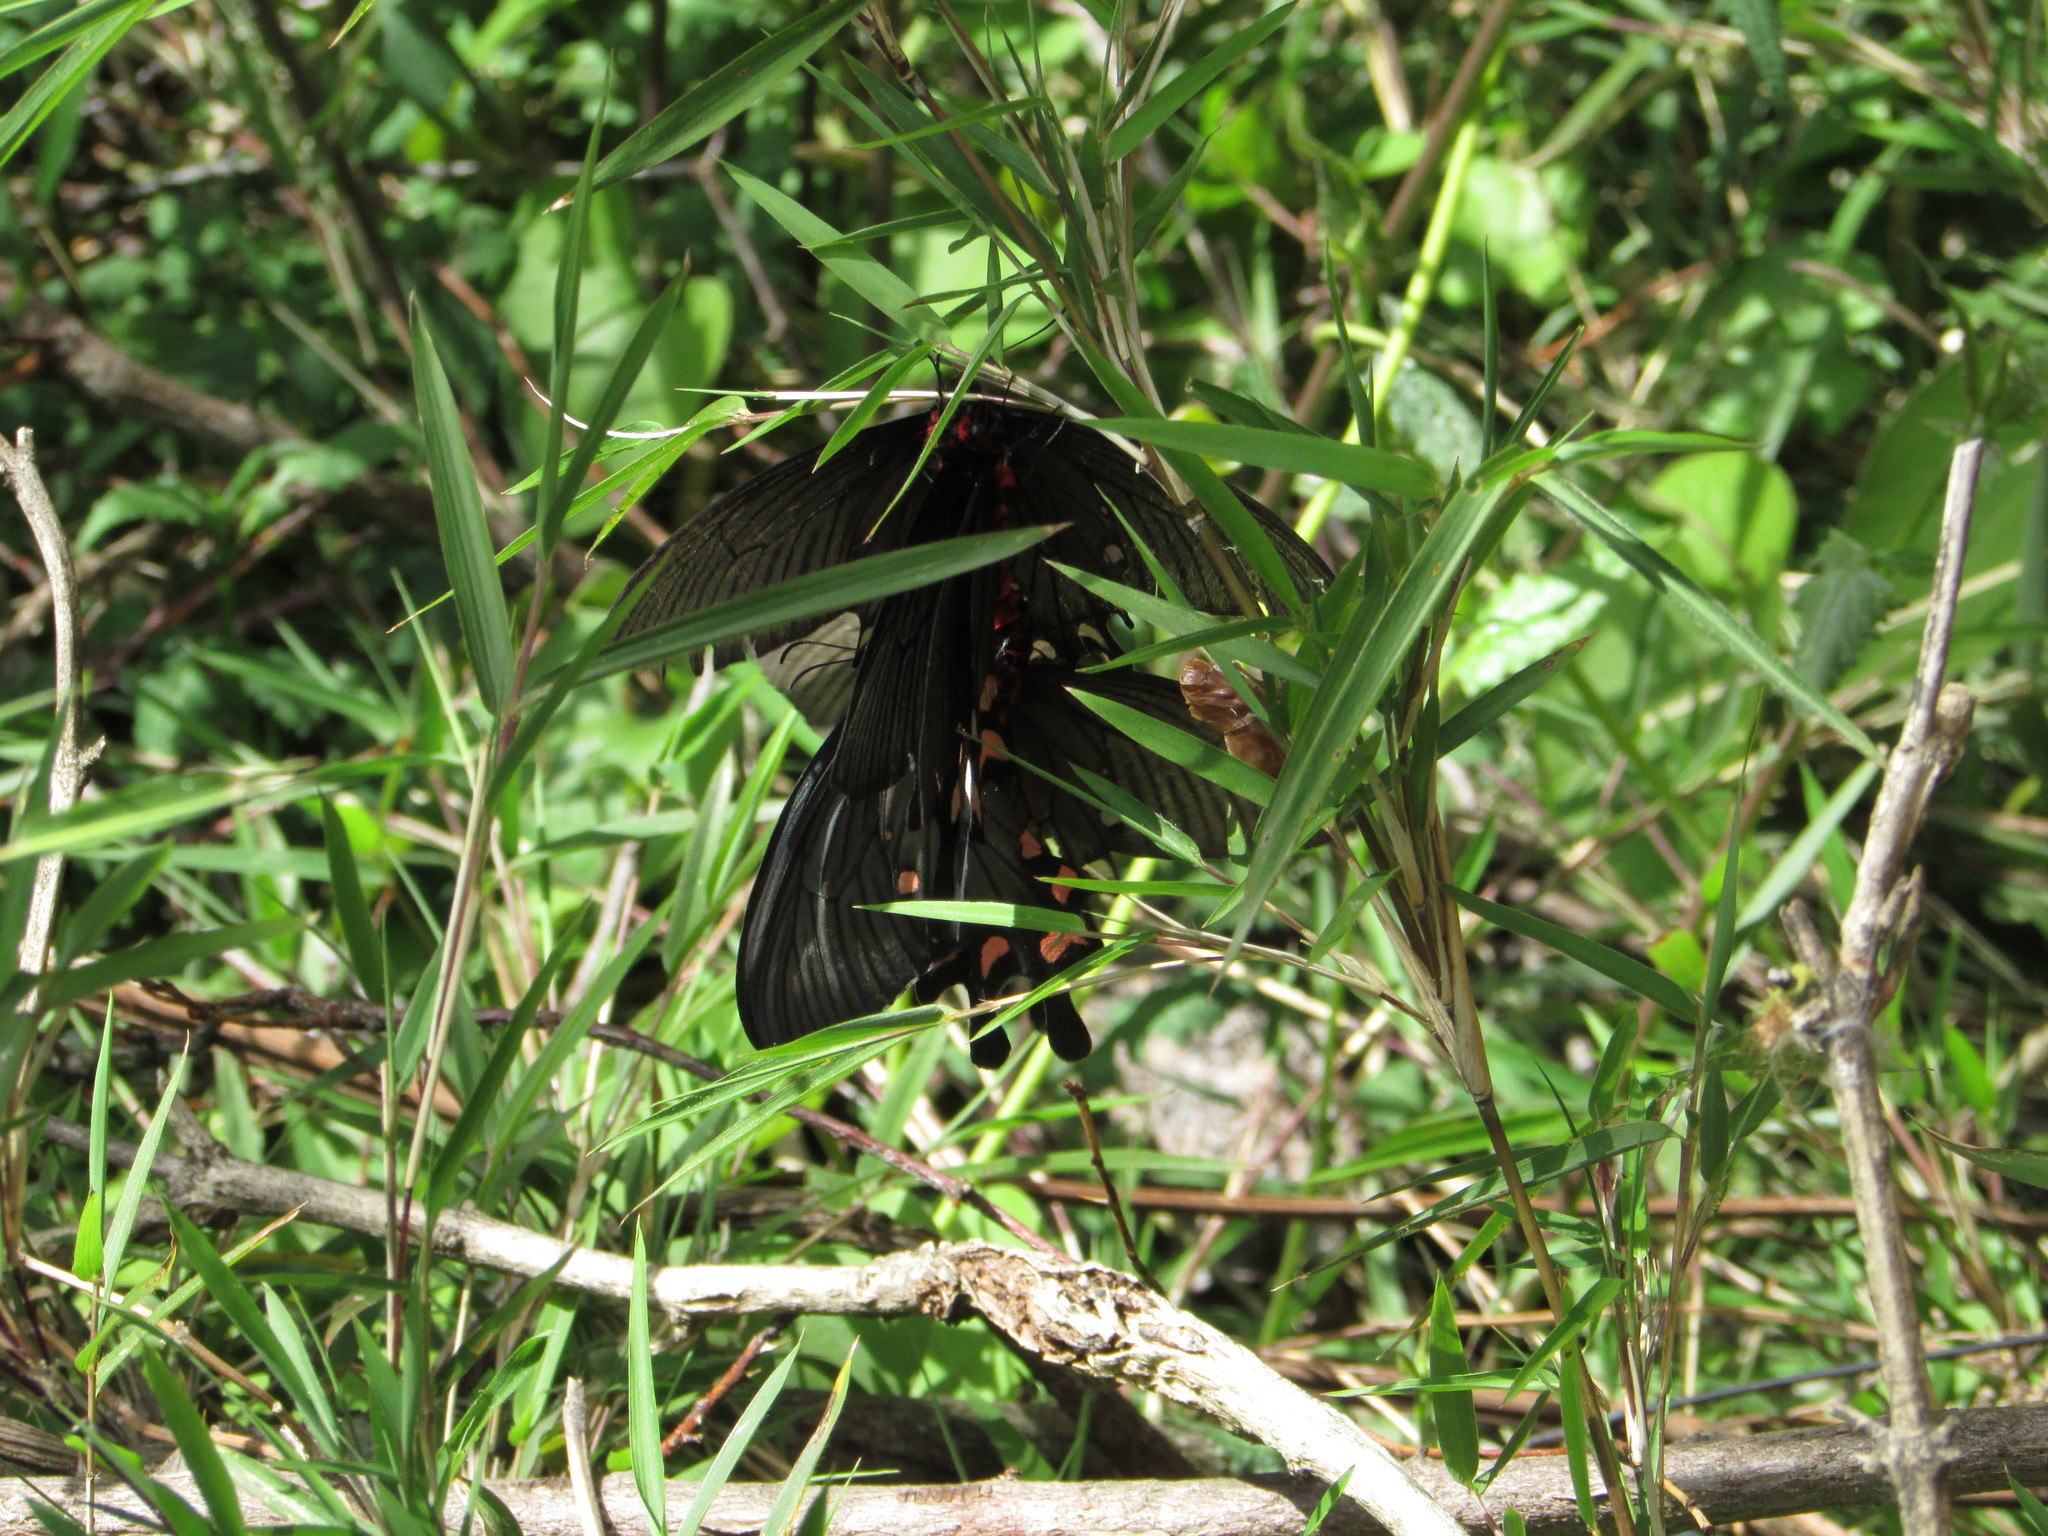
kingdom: Animalia
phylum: Arthropoda
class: Insecta
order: Lepidoptera
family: Papilionidae
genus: Byasa
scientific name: Byasa plutonius
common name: Chinese windmill
